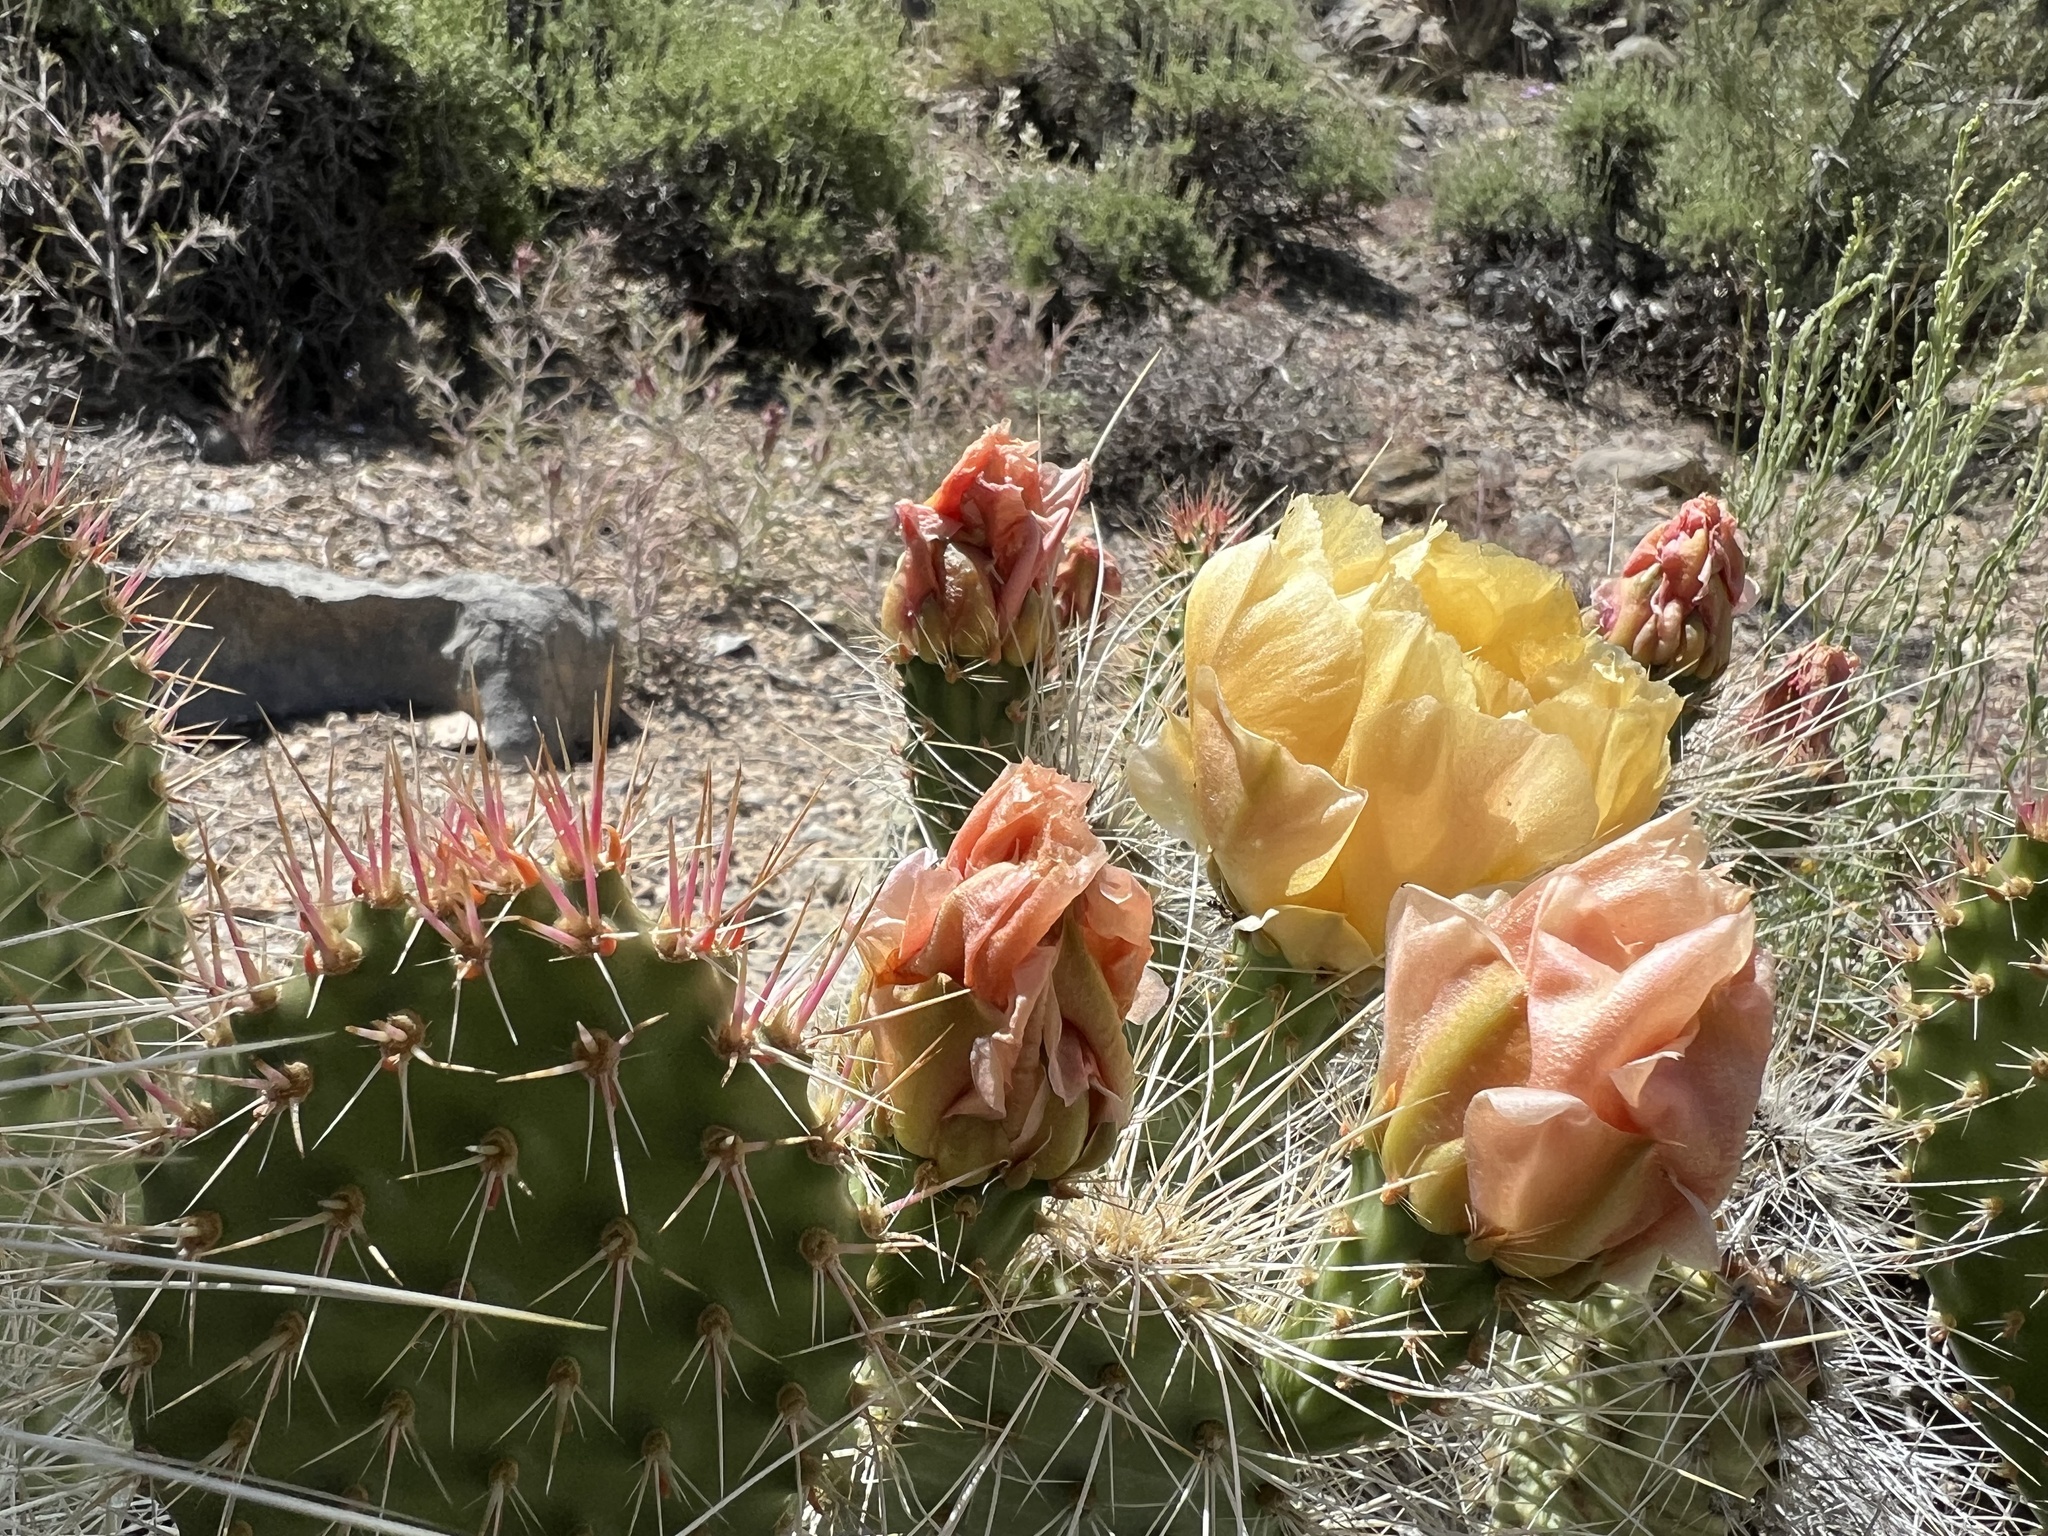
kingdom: Plantae
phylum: Tracheophyta
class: Magnoliopsida
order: Caryophyllales
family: Cactaceae
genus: Opuntia
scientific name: Opuntia polyacantha
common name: Plains prickly-pear
